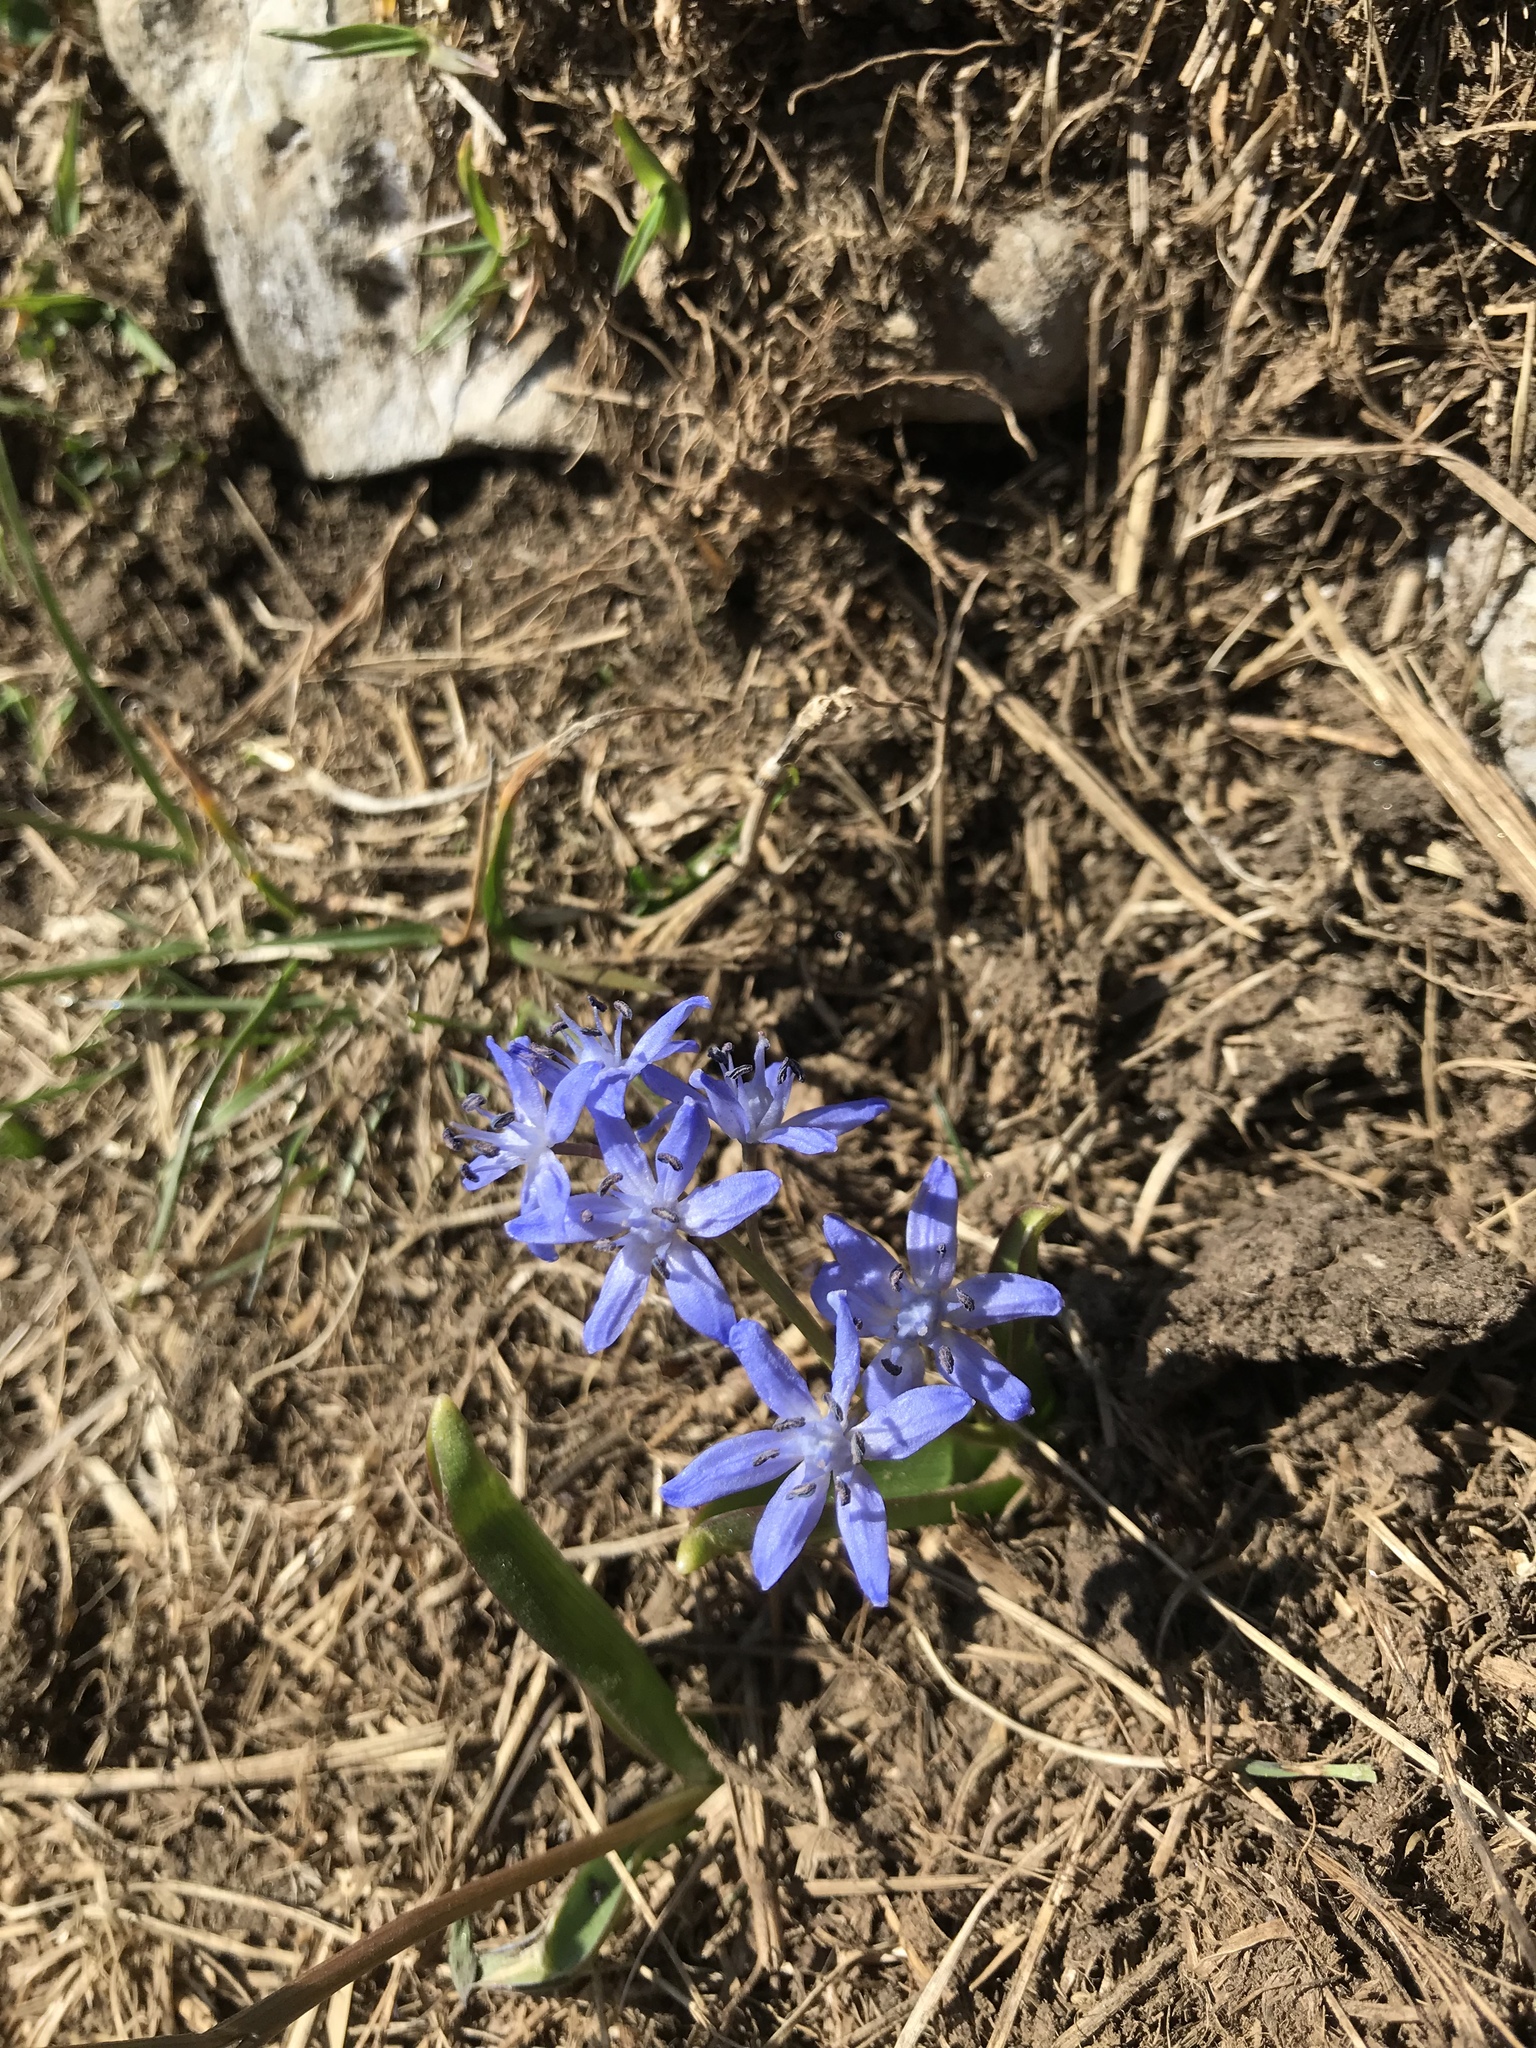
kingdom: Plantae
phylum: Tracheophyta
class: Liliopsida
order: Asparagales
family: Asparagaceae
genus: Scilla
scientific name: Scilla bifolia
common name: Alpine squill
